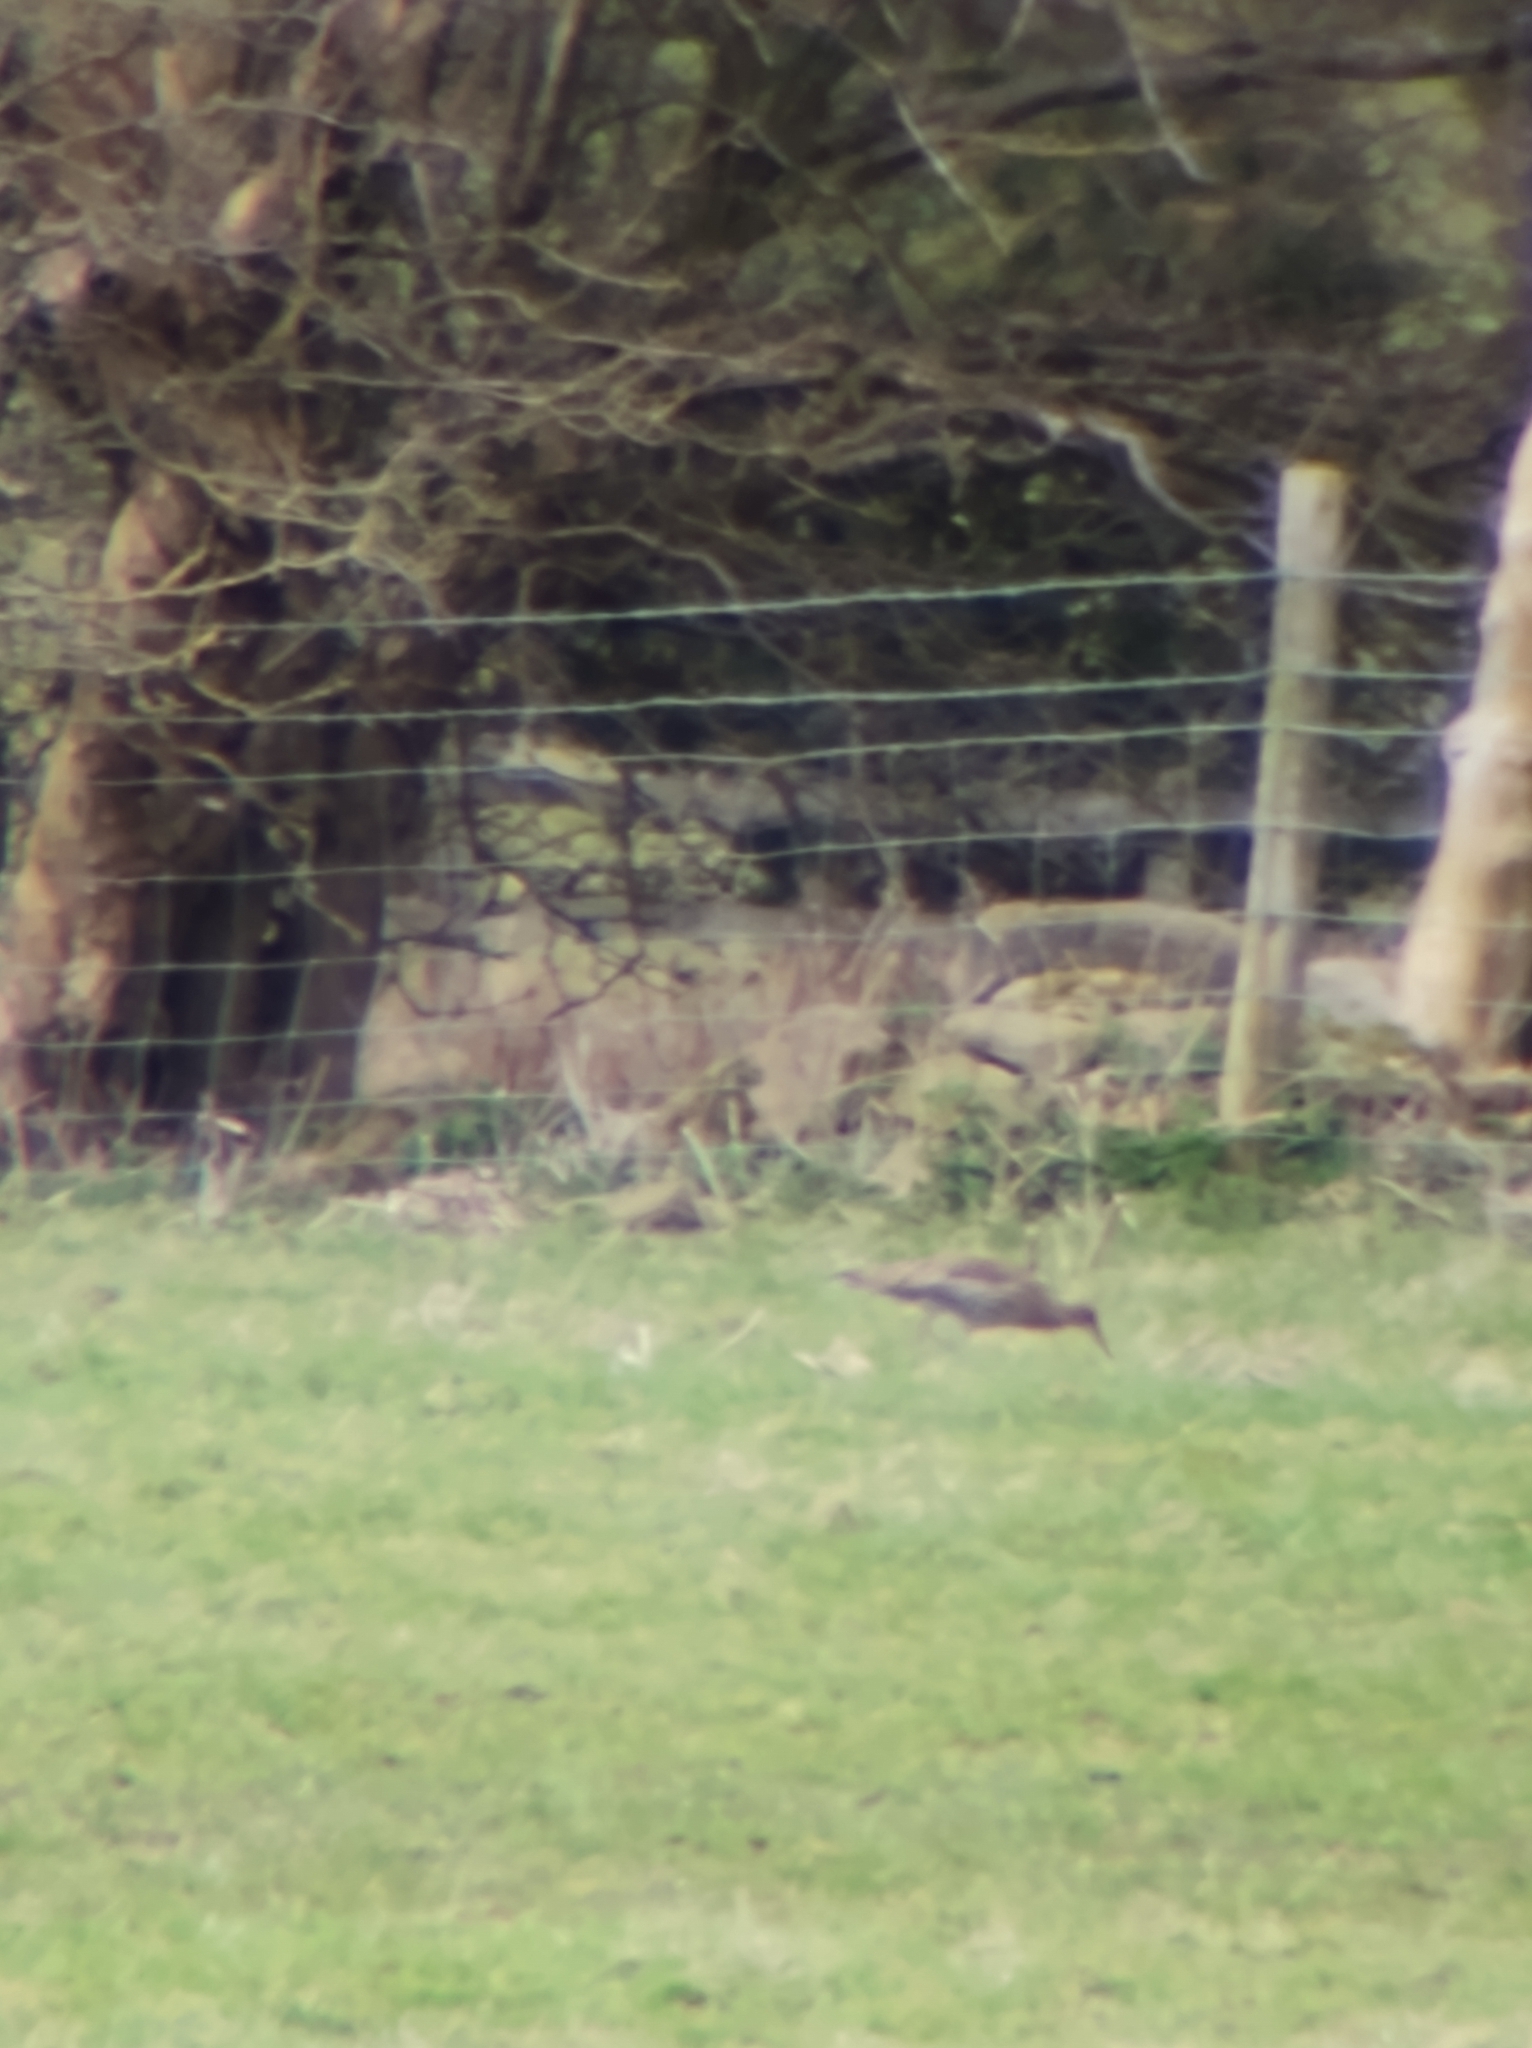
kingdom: Animalia
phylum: Chordata
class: Aves
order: Charadriiformes
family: Scolopacidae
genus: Numenius
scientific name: Numenius arquata
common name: Eurasian curlew
